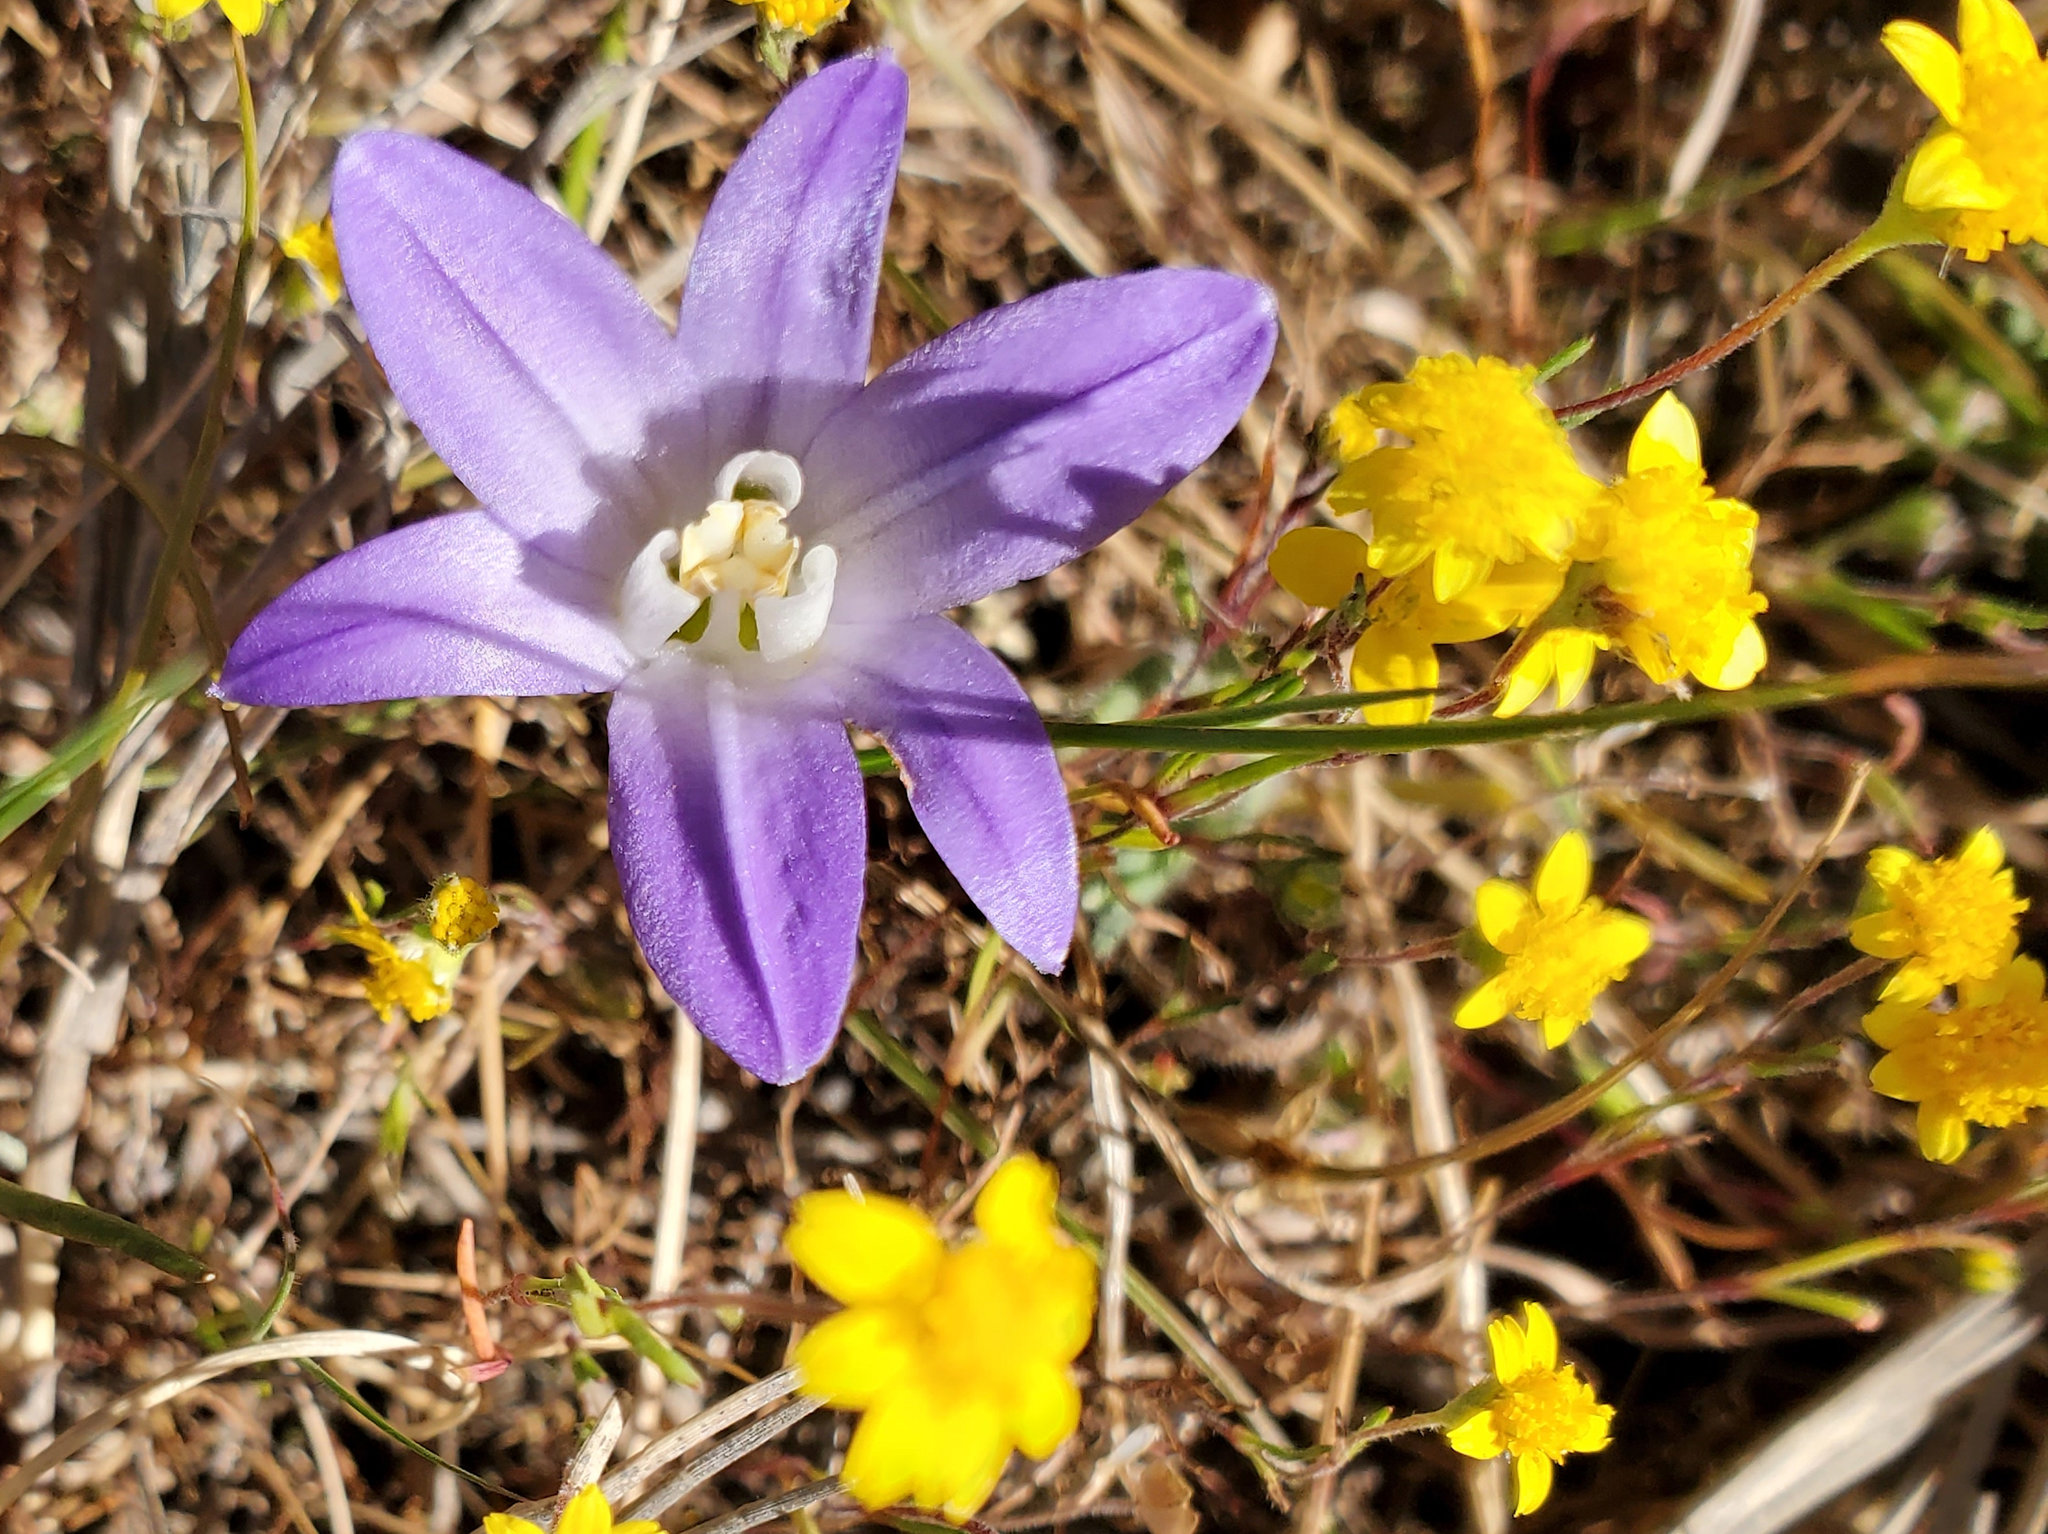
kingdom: Plantae
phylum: Tracheophyta
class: Liliopsida
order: Asparagales
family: Asparagaceae
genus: Brodiaea
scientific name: Brodiaea terrestris
